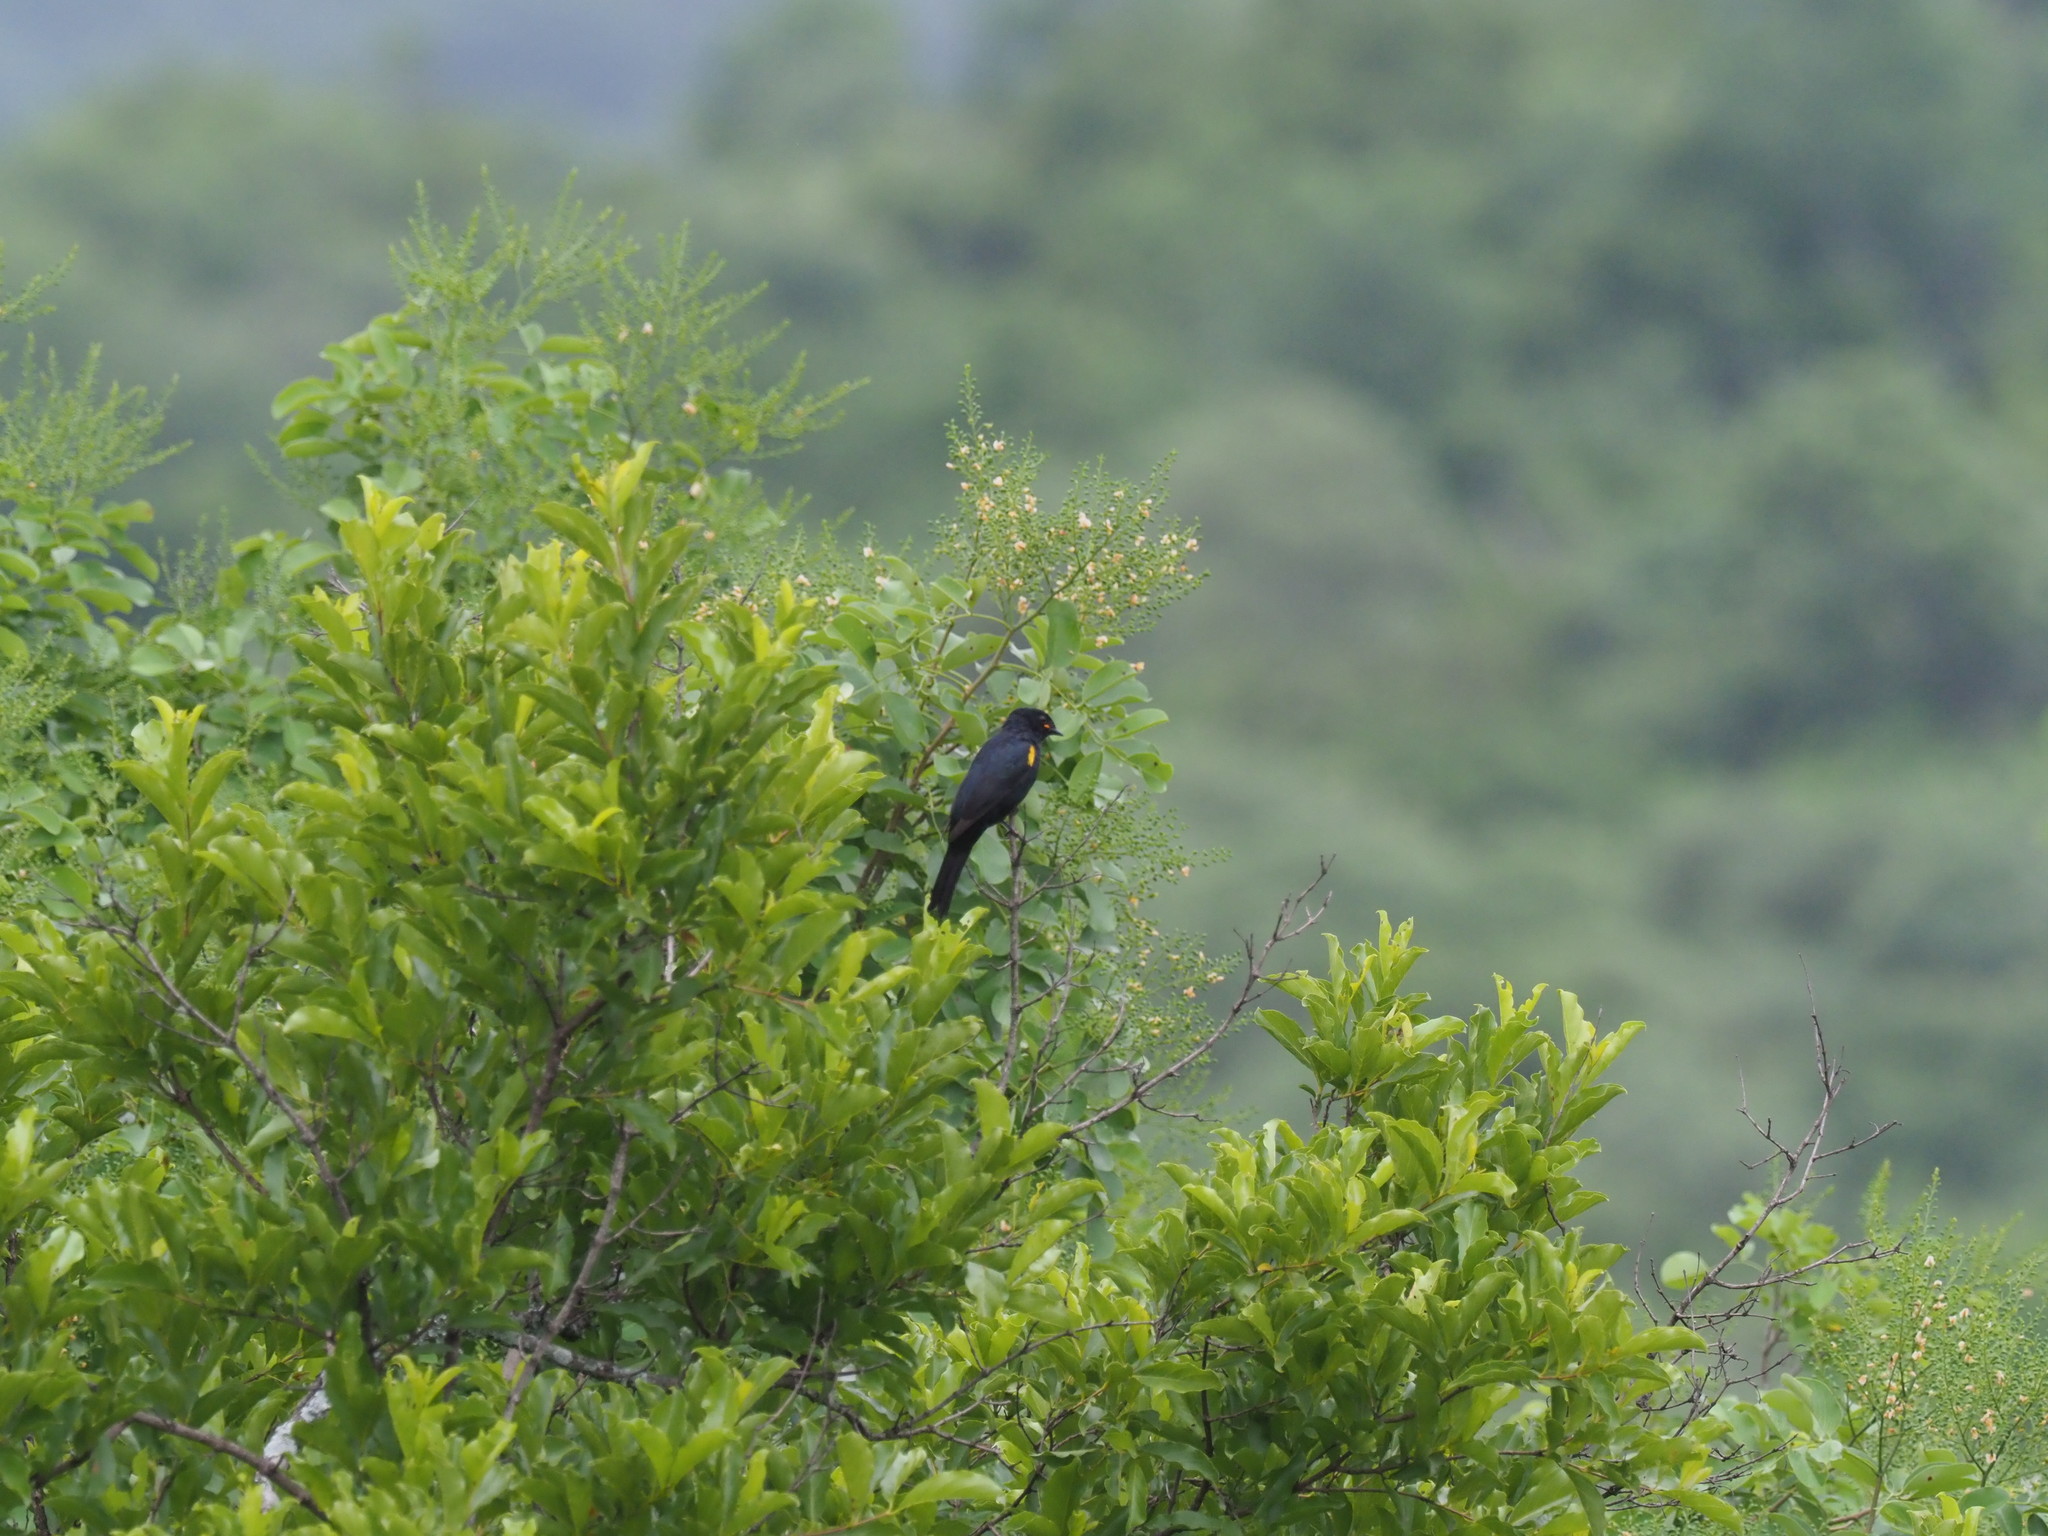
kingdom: Animalia
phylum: Chordata
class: Aves
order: Passeriformes
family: Campephagidae
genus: Campephaga
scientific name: Campephaga flava
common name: Black cuckooshrike
